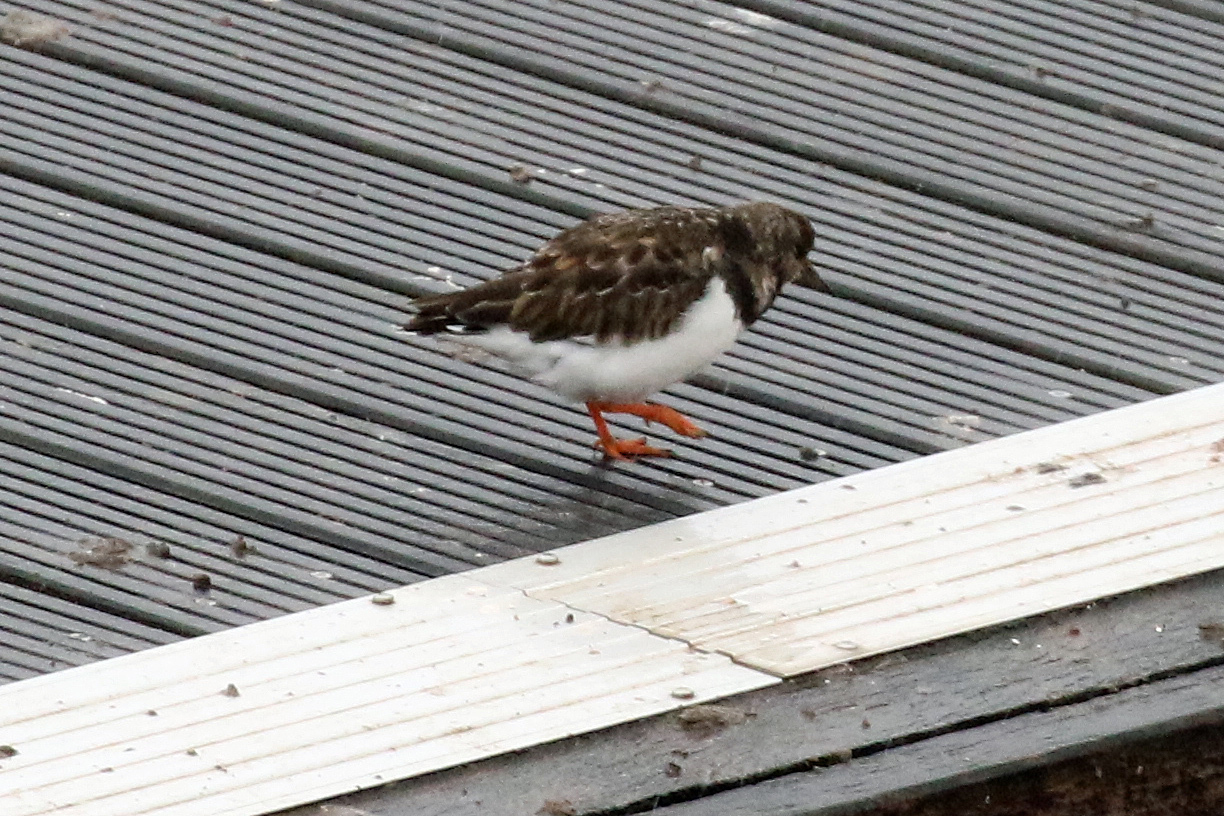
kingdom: Animalia
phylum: Chordata
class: Aves
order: Charadriiformes
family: Scolopacidae
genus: Arenaria
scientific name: Arenaria interpres
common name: Ruddy turnstone
